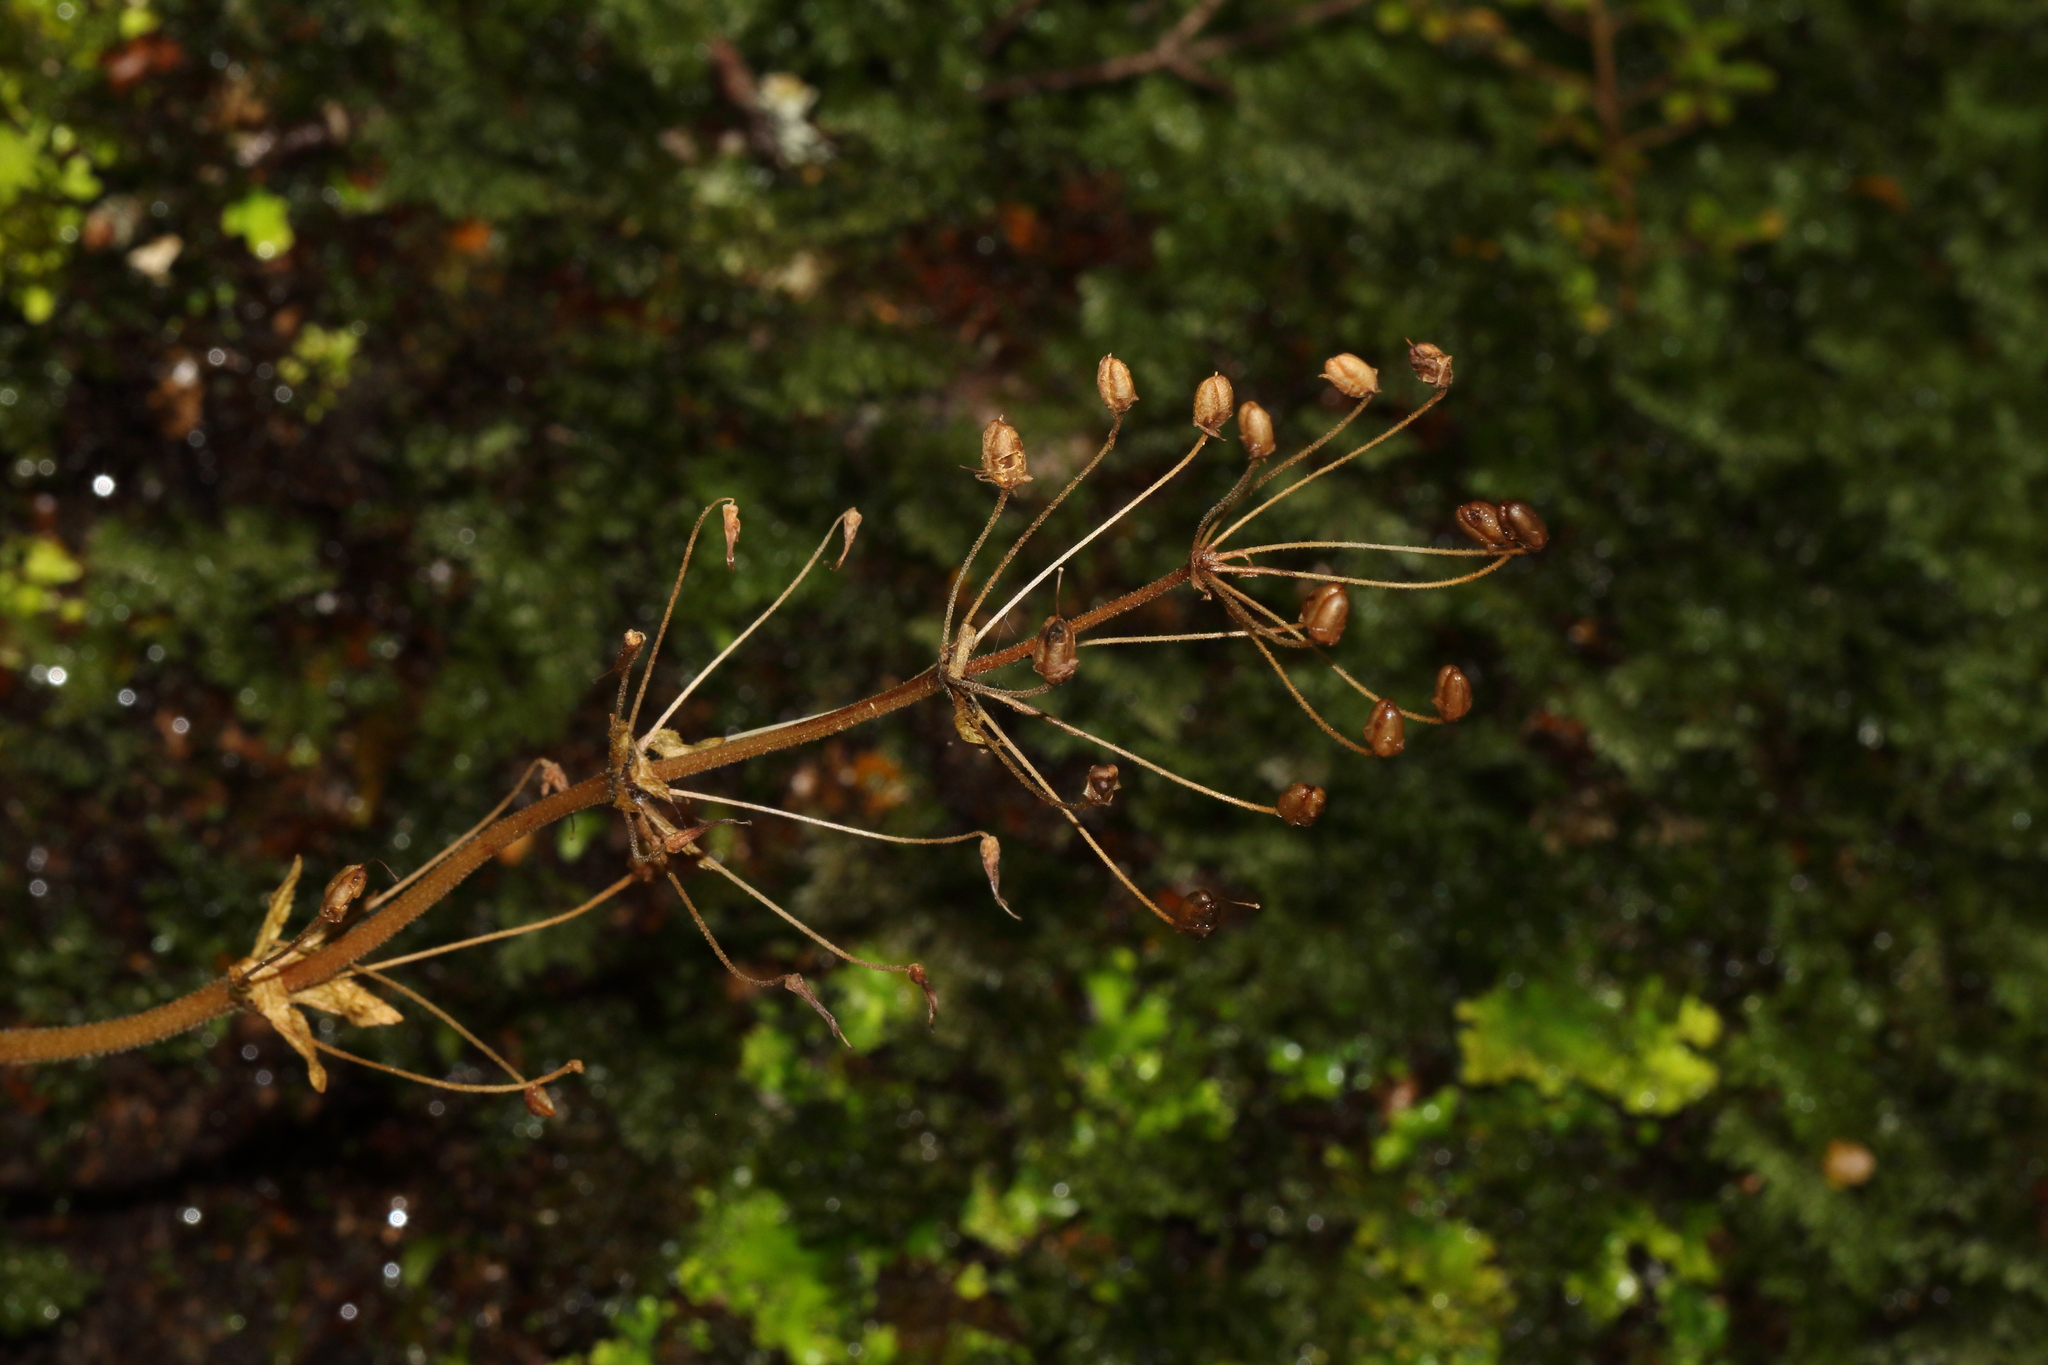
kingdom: Plantae
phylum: Tracheophyta
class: Magnoliopsida
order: Lamiales
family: Plantaginaceae
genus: Ourisia
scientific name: Ourisia macrophylla
